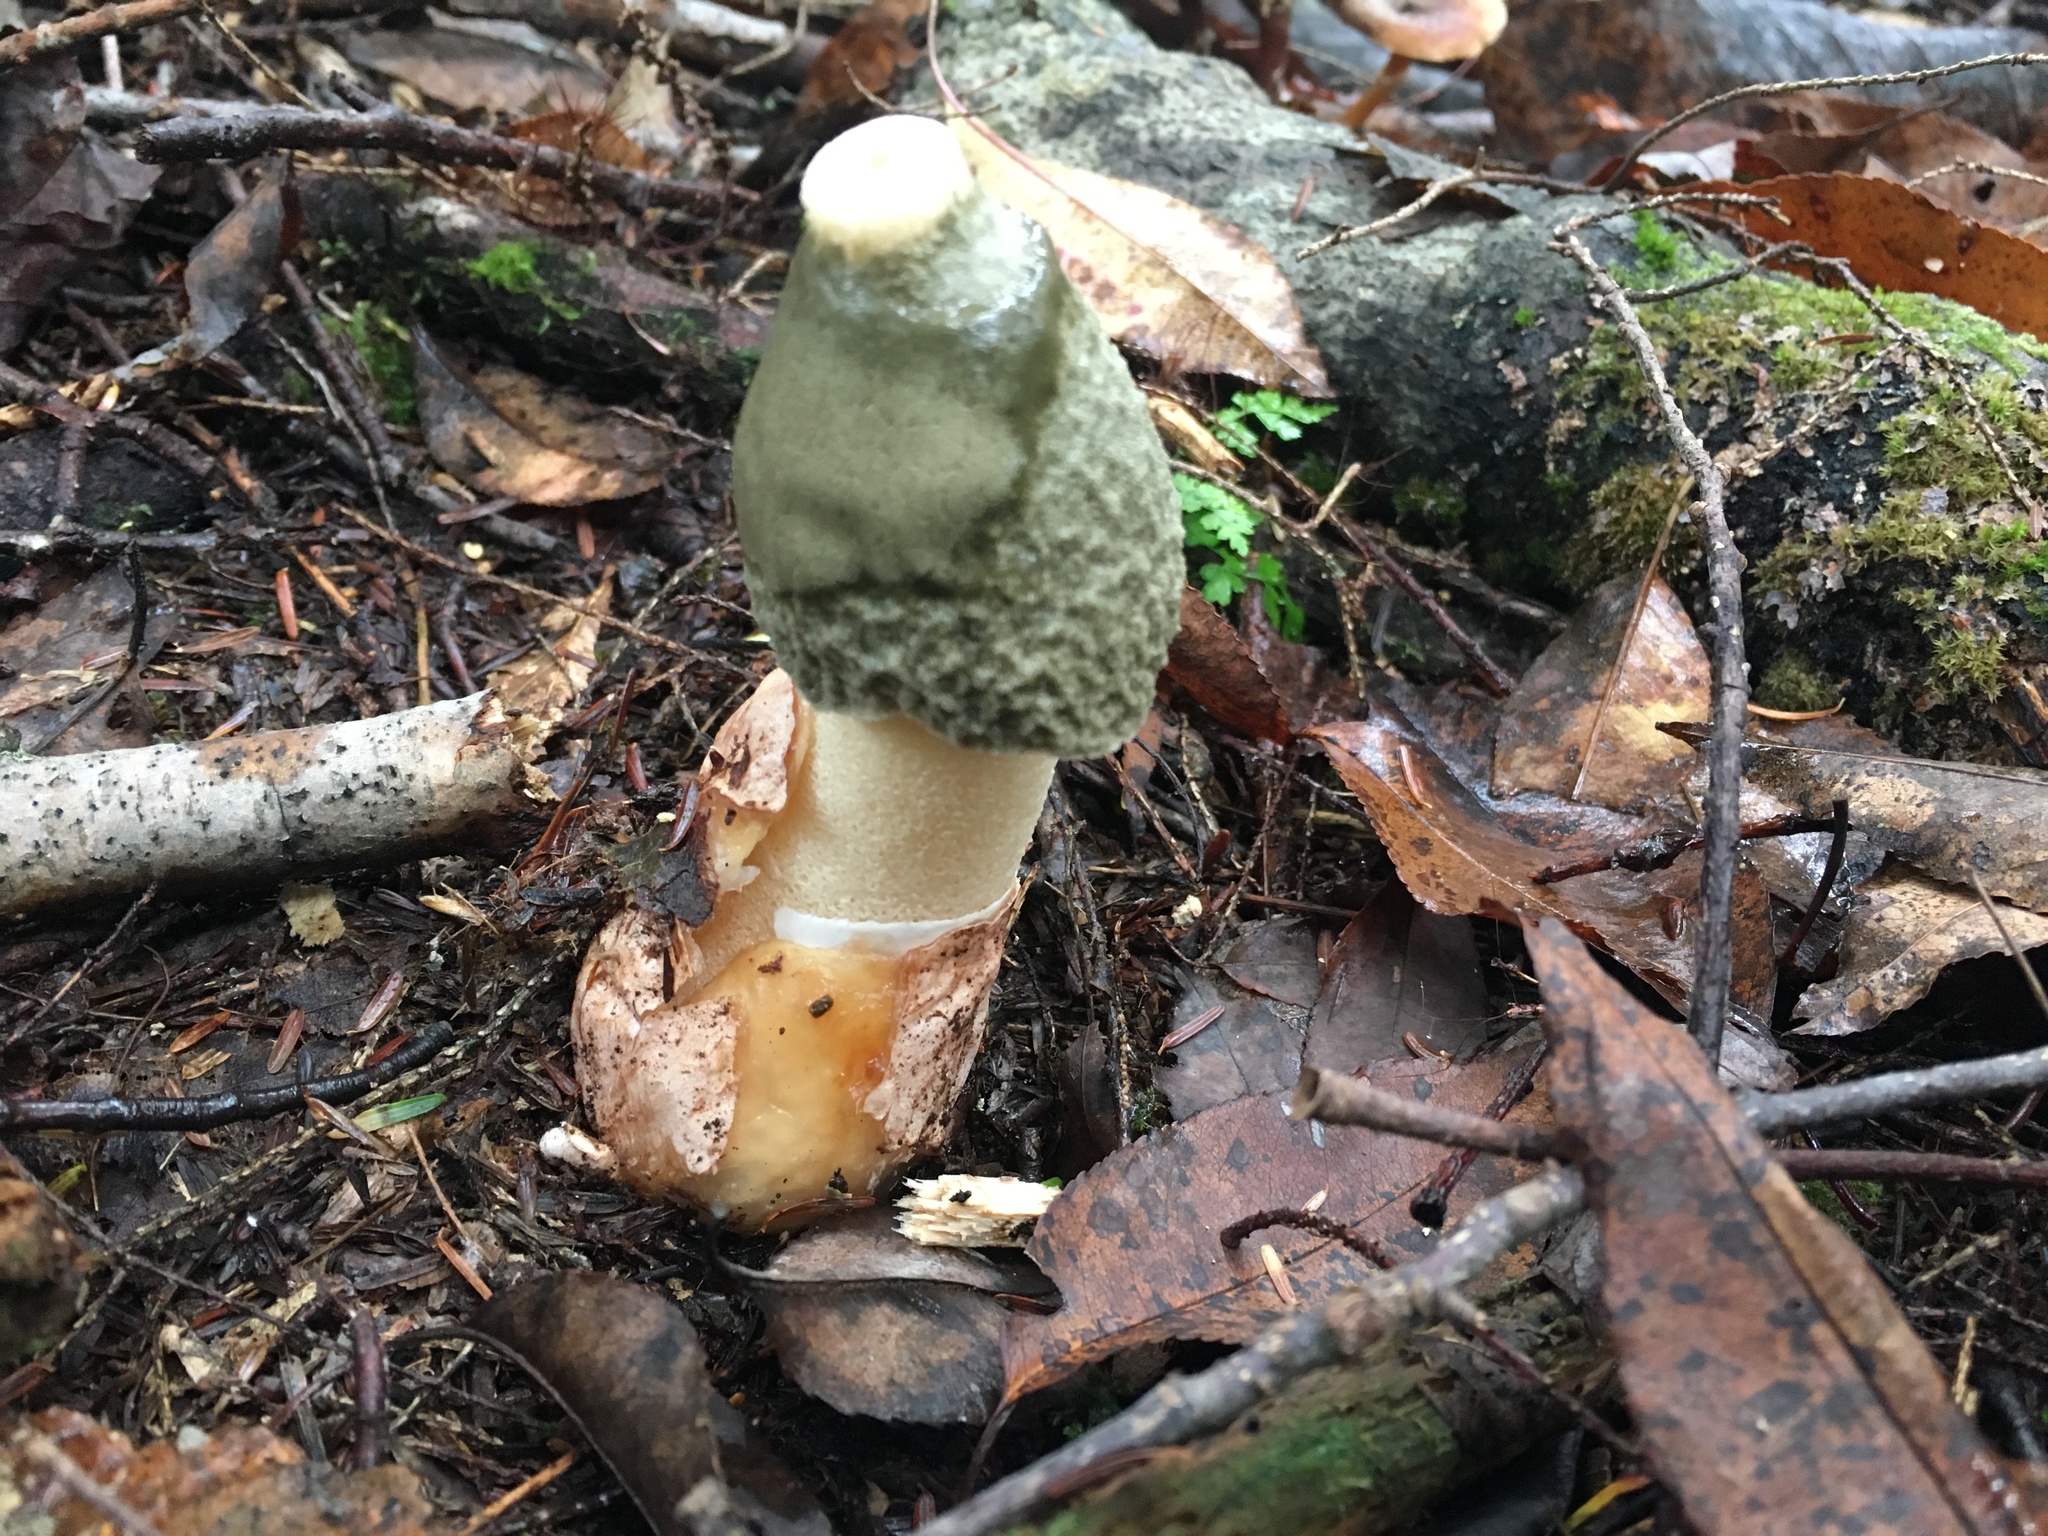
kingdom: Fungi
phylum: Basidiomycota
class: Agaricomycetes
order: Phallales
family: Phallaceae
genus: Phallus
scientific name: Phallus ravenelii
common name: Ravenel's stinkhorn
